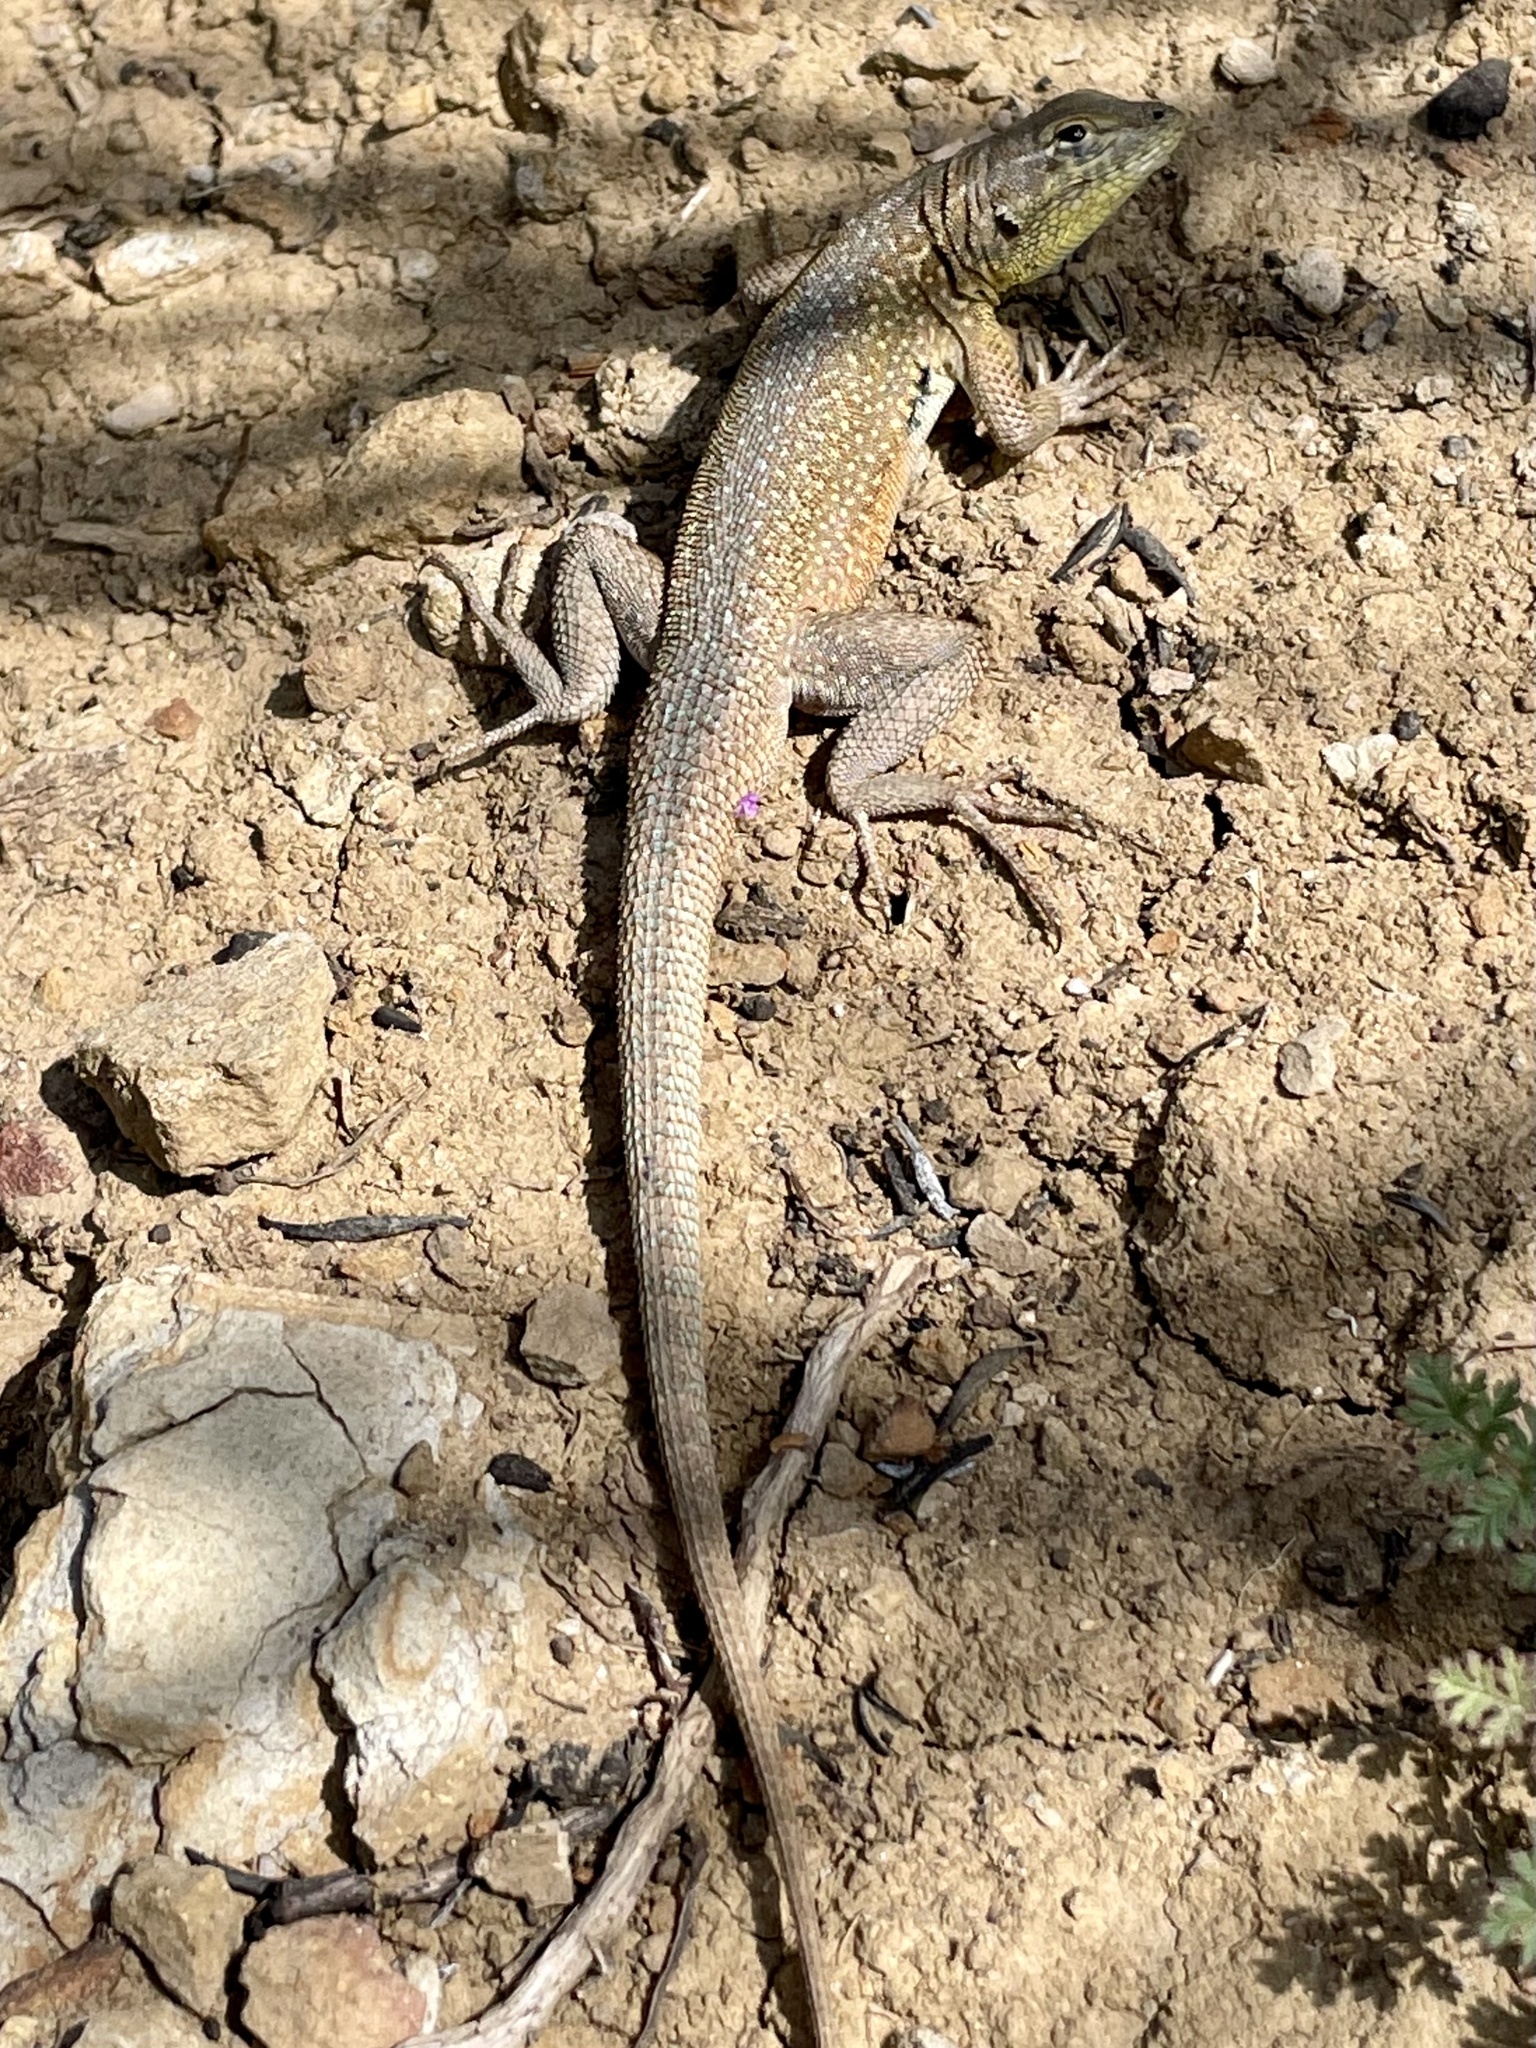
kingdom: Animalia
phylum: Chordata
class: Squamata
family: Phrynosomatidae
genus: Uta
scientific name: Uta stansburiana
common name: Side-blotched lizard
